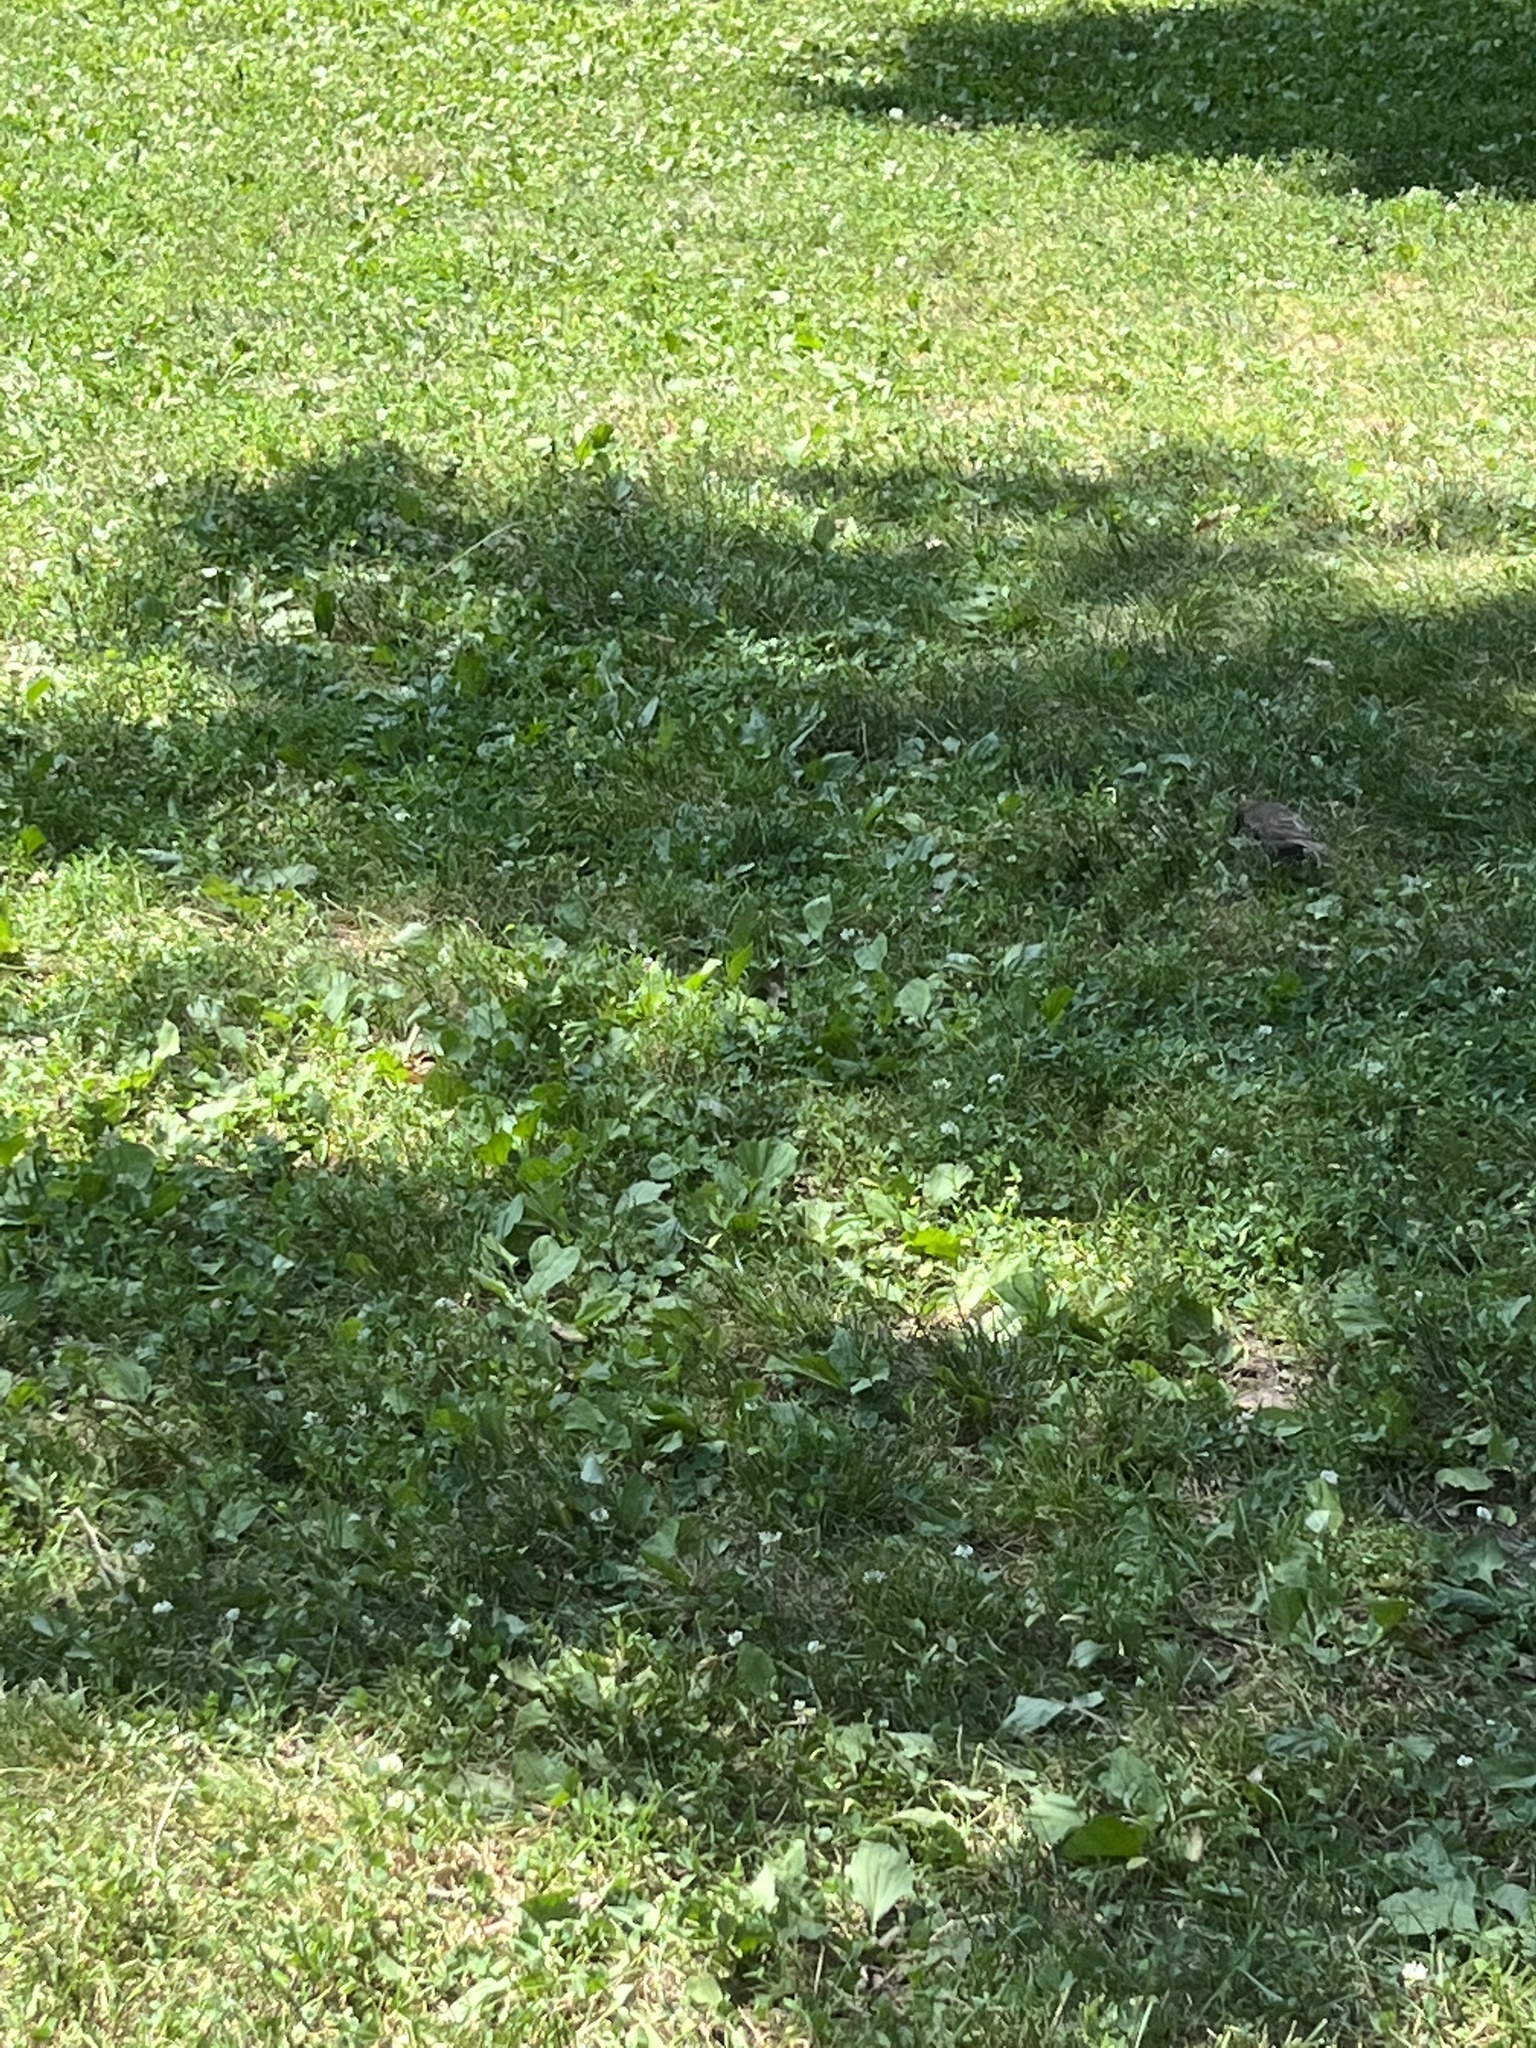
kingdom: Animalia
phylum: Chordata
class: Aves
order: Passeriformes
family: Sturnidae
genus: Sturnus
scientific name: Sturnus vulgaris
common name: Common starling
